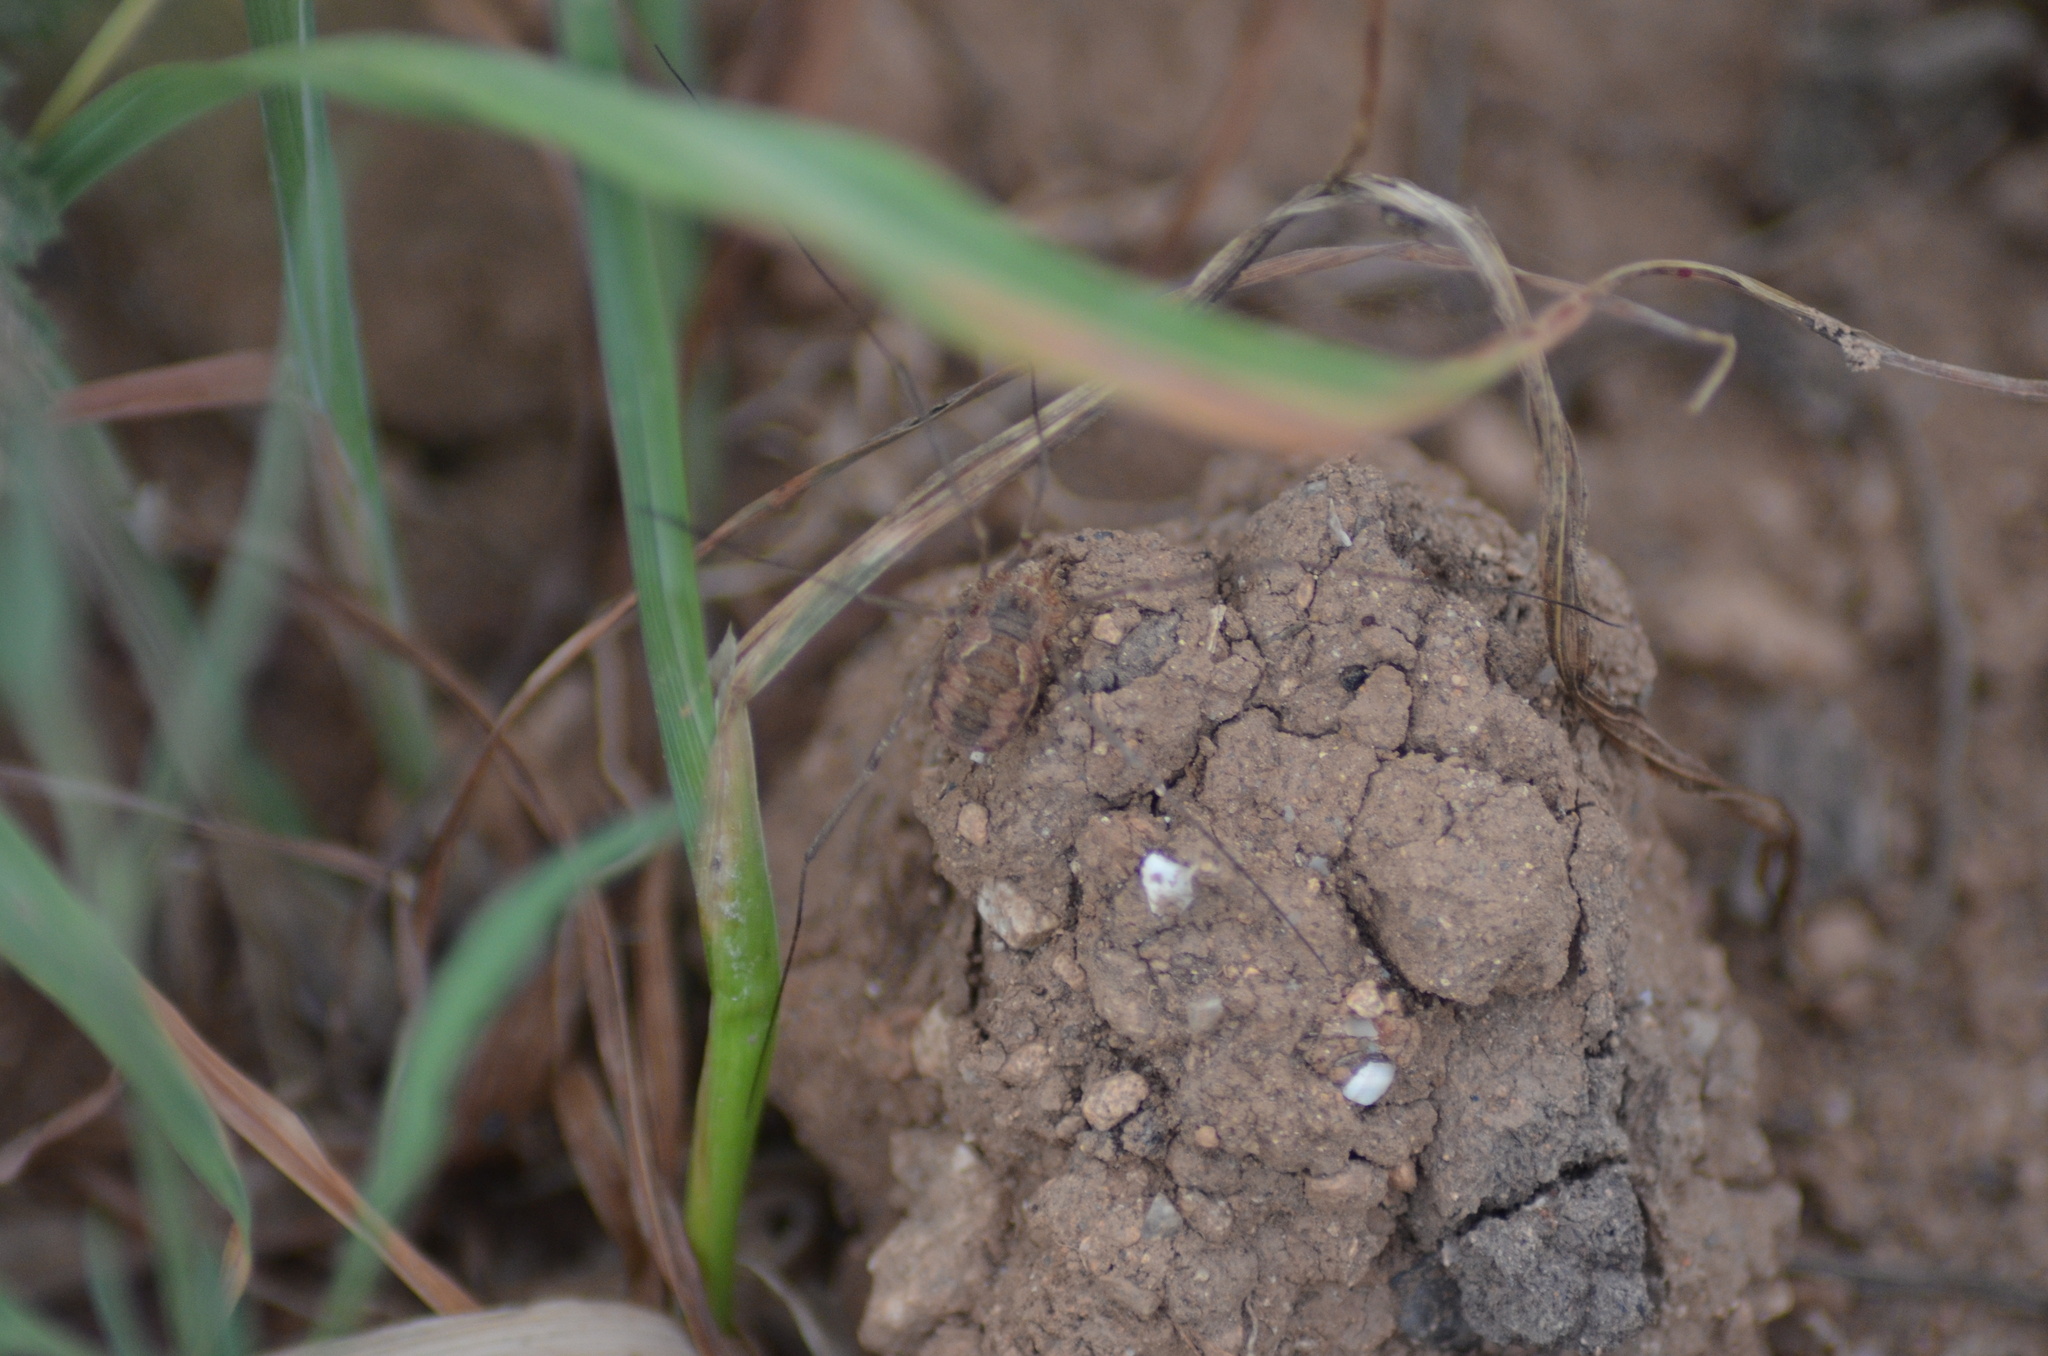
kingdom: Animalia
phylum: Arthropoda
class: Arachnida
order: Opiliones
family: Phalangiidae
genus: Phalangium
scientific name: Phalangium opilio
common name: Daddy longleg
